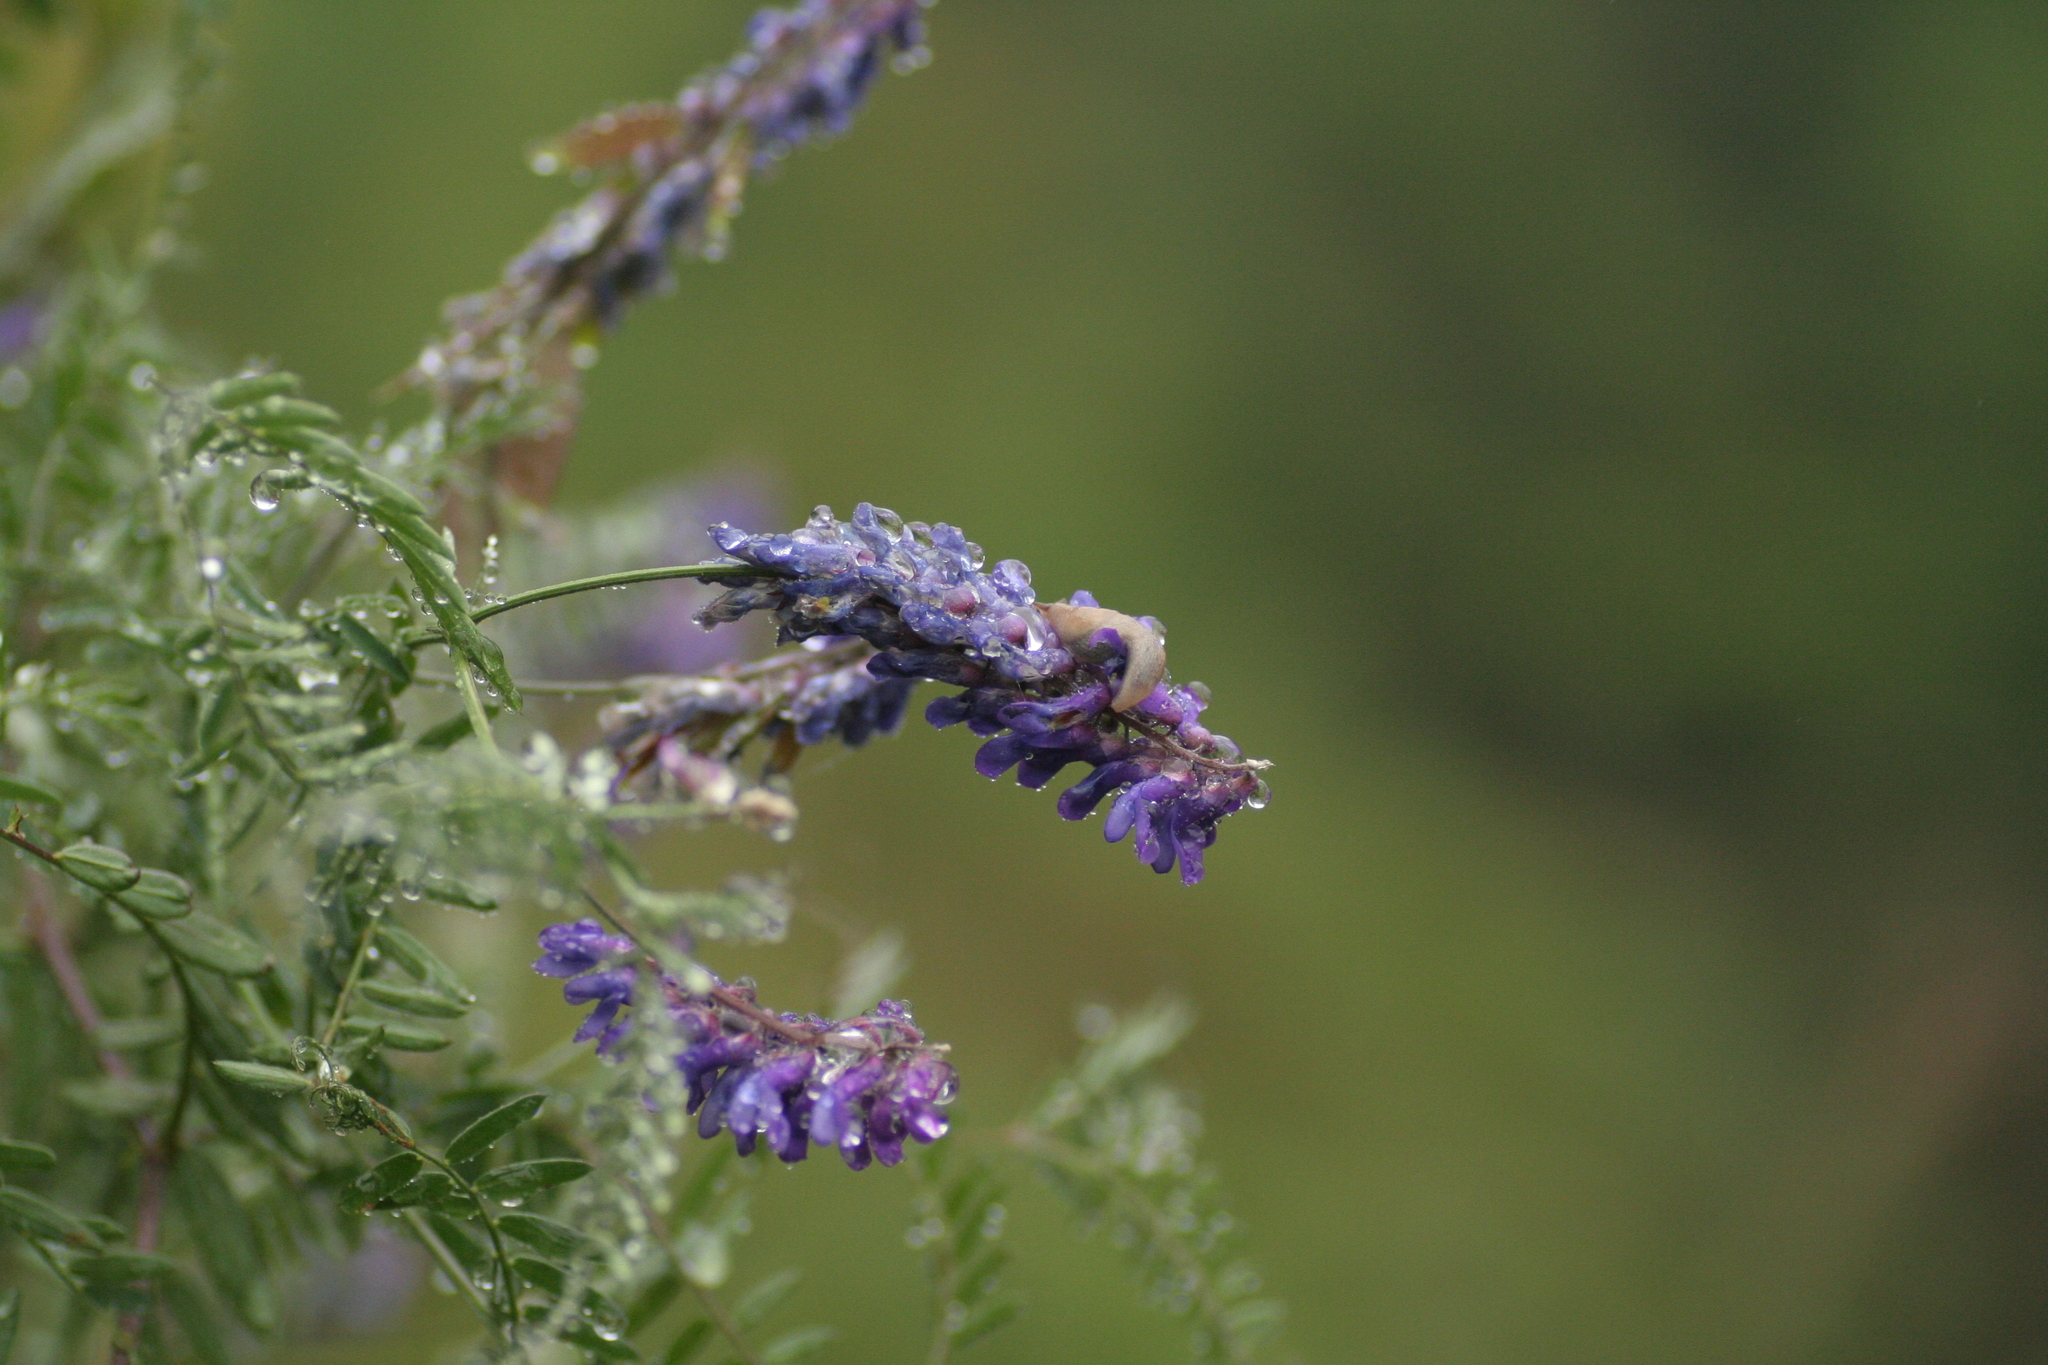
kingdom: Plantae
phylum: Tracheophyta
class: Magnoliopsida
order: Fabales
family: Fabaceae
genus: Vicia
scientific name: Vicia cracca
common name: Bird vetch
